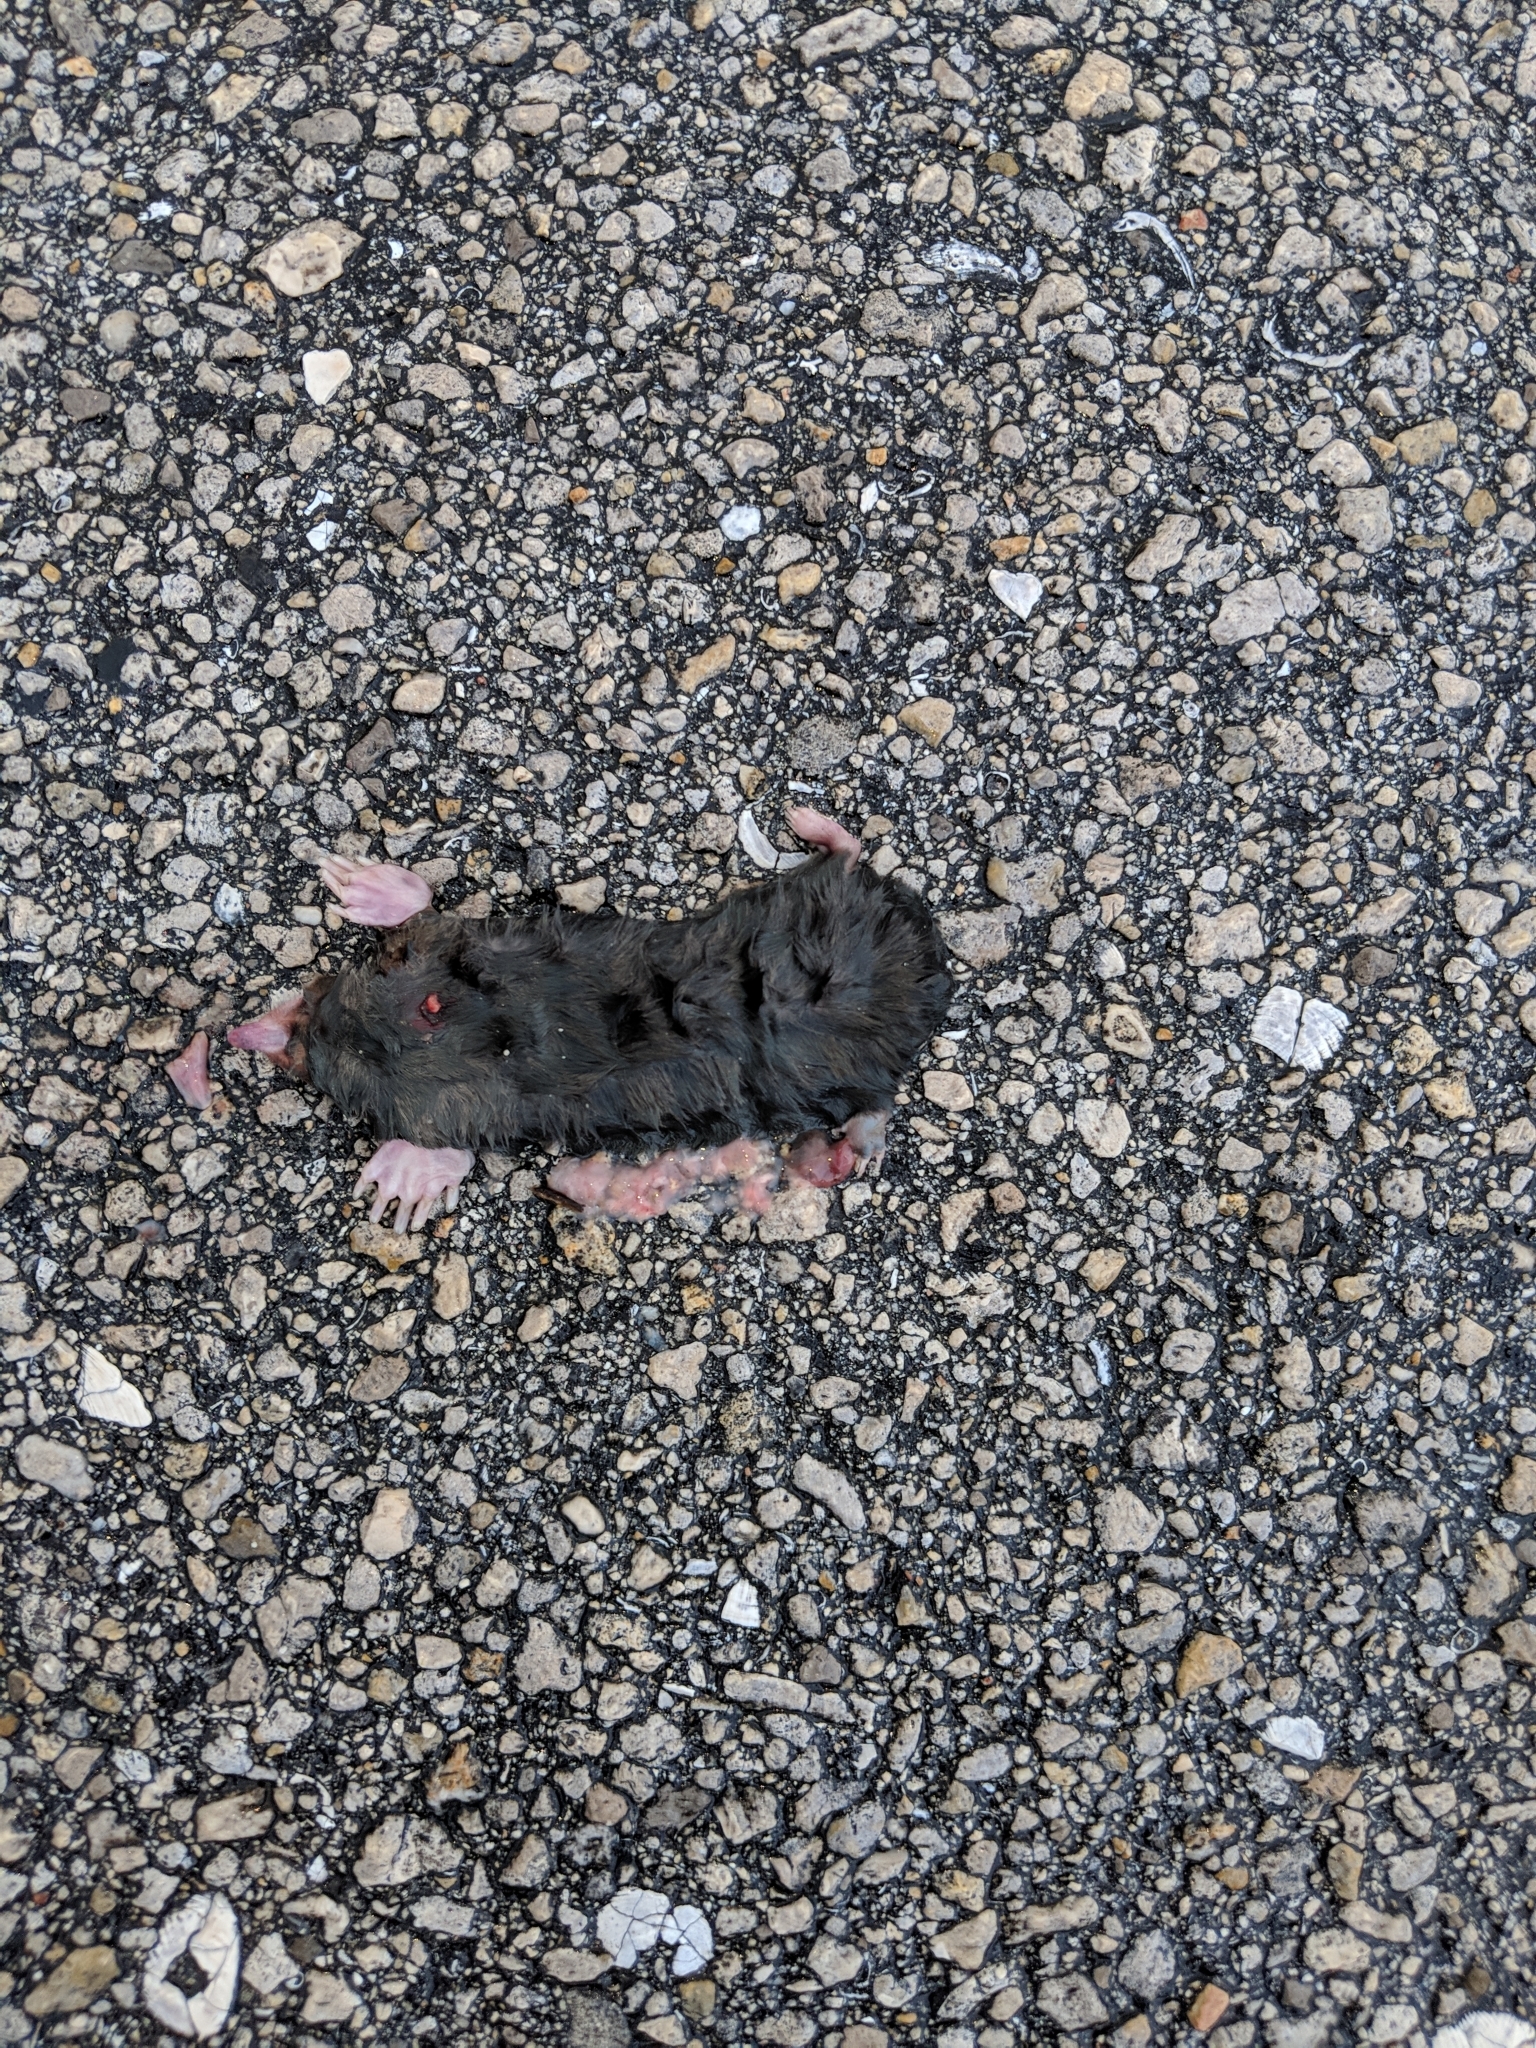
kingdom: Animalia
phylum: Chordata
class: Mammalia
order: Soricomorpha
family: Talpidae
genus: Scalopus
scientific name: Scalopus aquaticus
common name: Eastern mole
